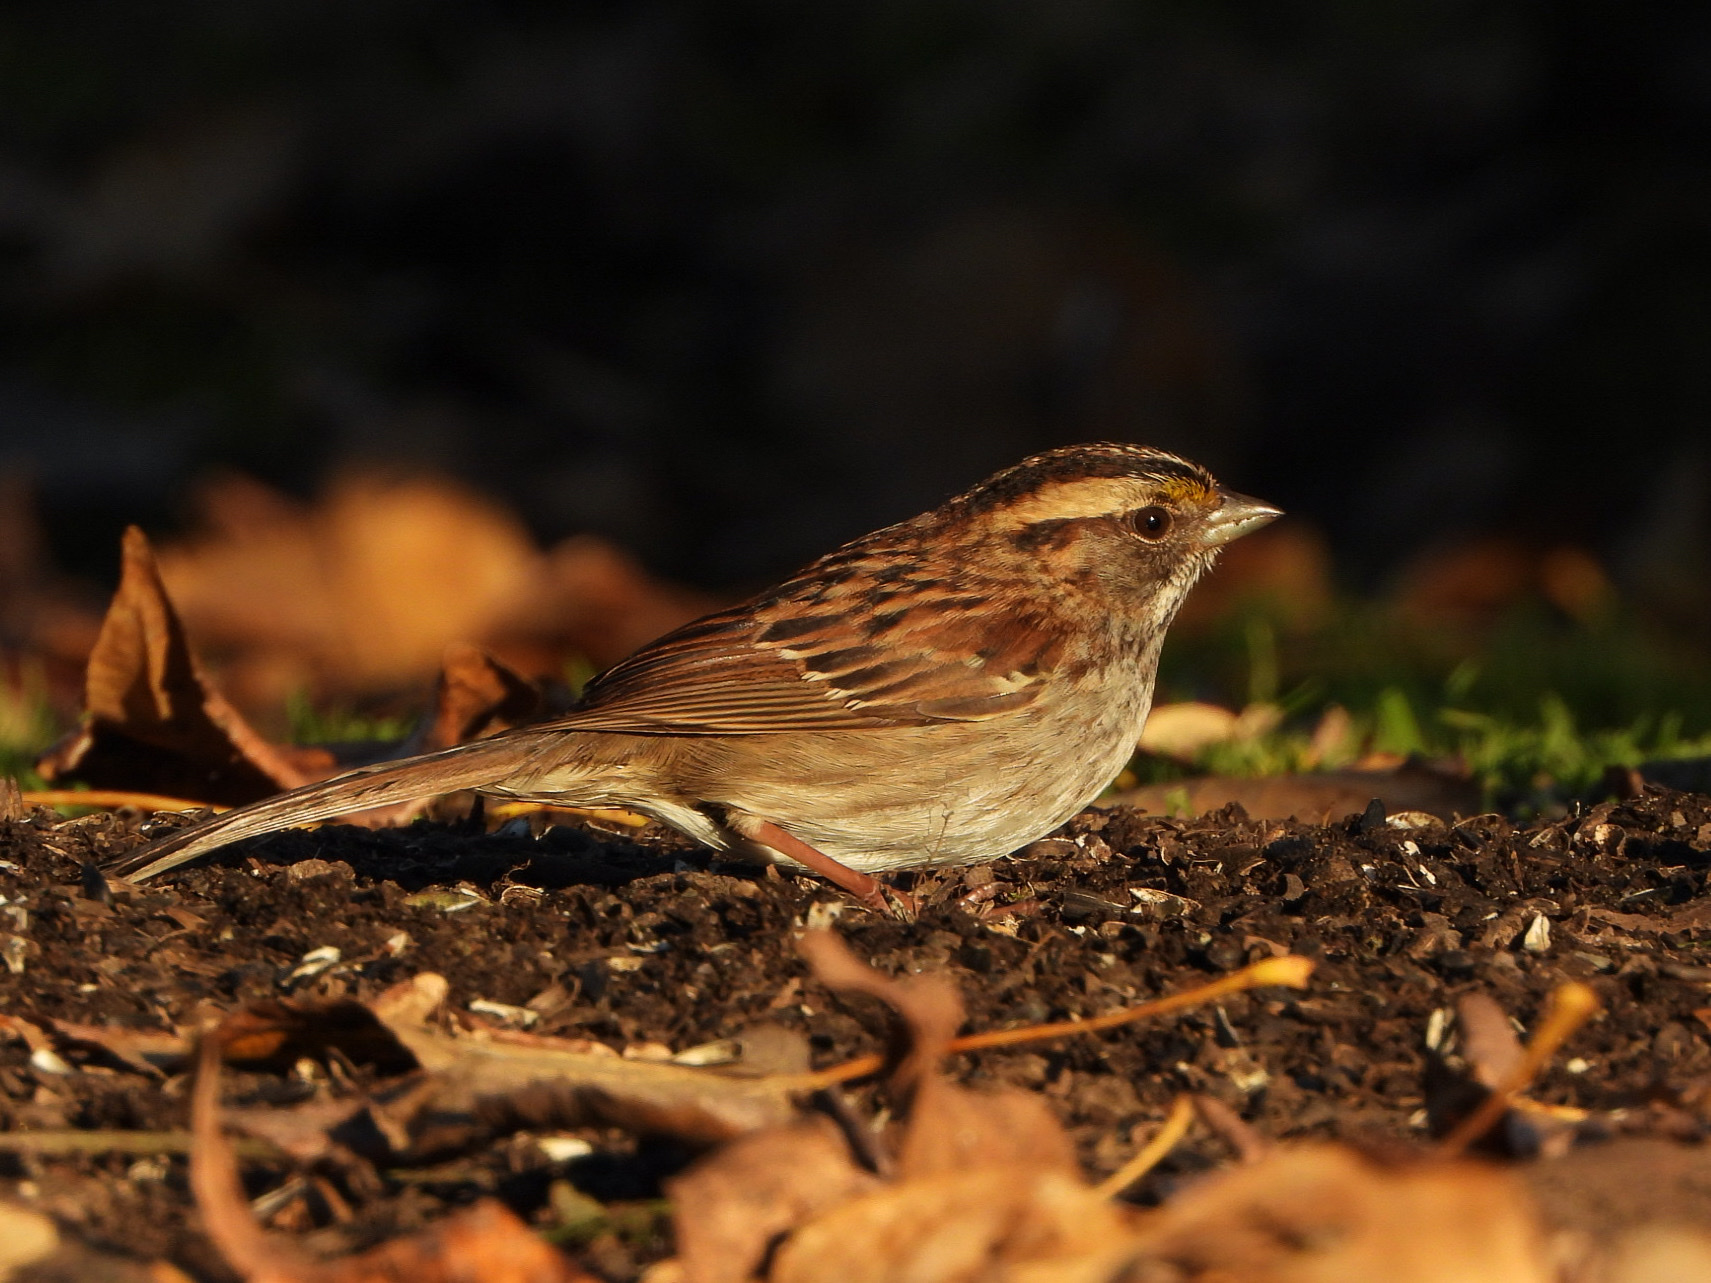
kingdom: Animalia
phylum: Chordata
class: Aves
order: Passeriformes
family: Passerellidae
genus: Zonotrichia
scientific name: Zonotrichia albicollis
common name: White-throated sparrow
